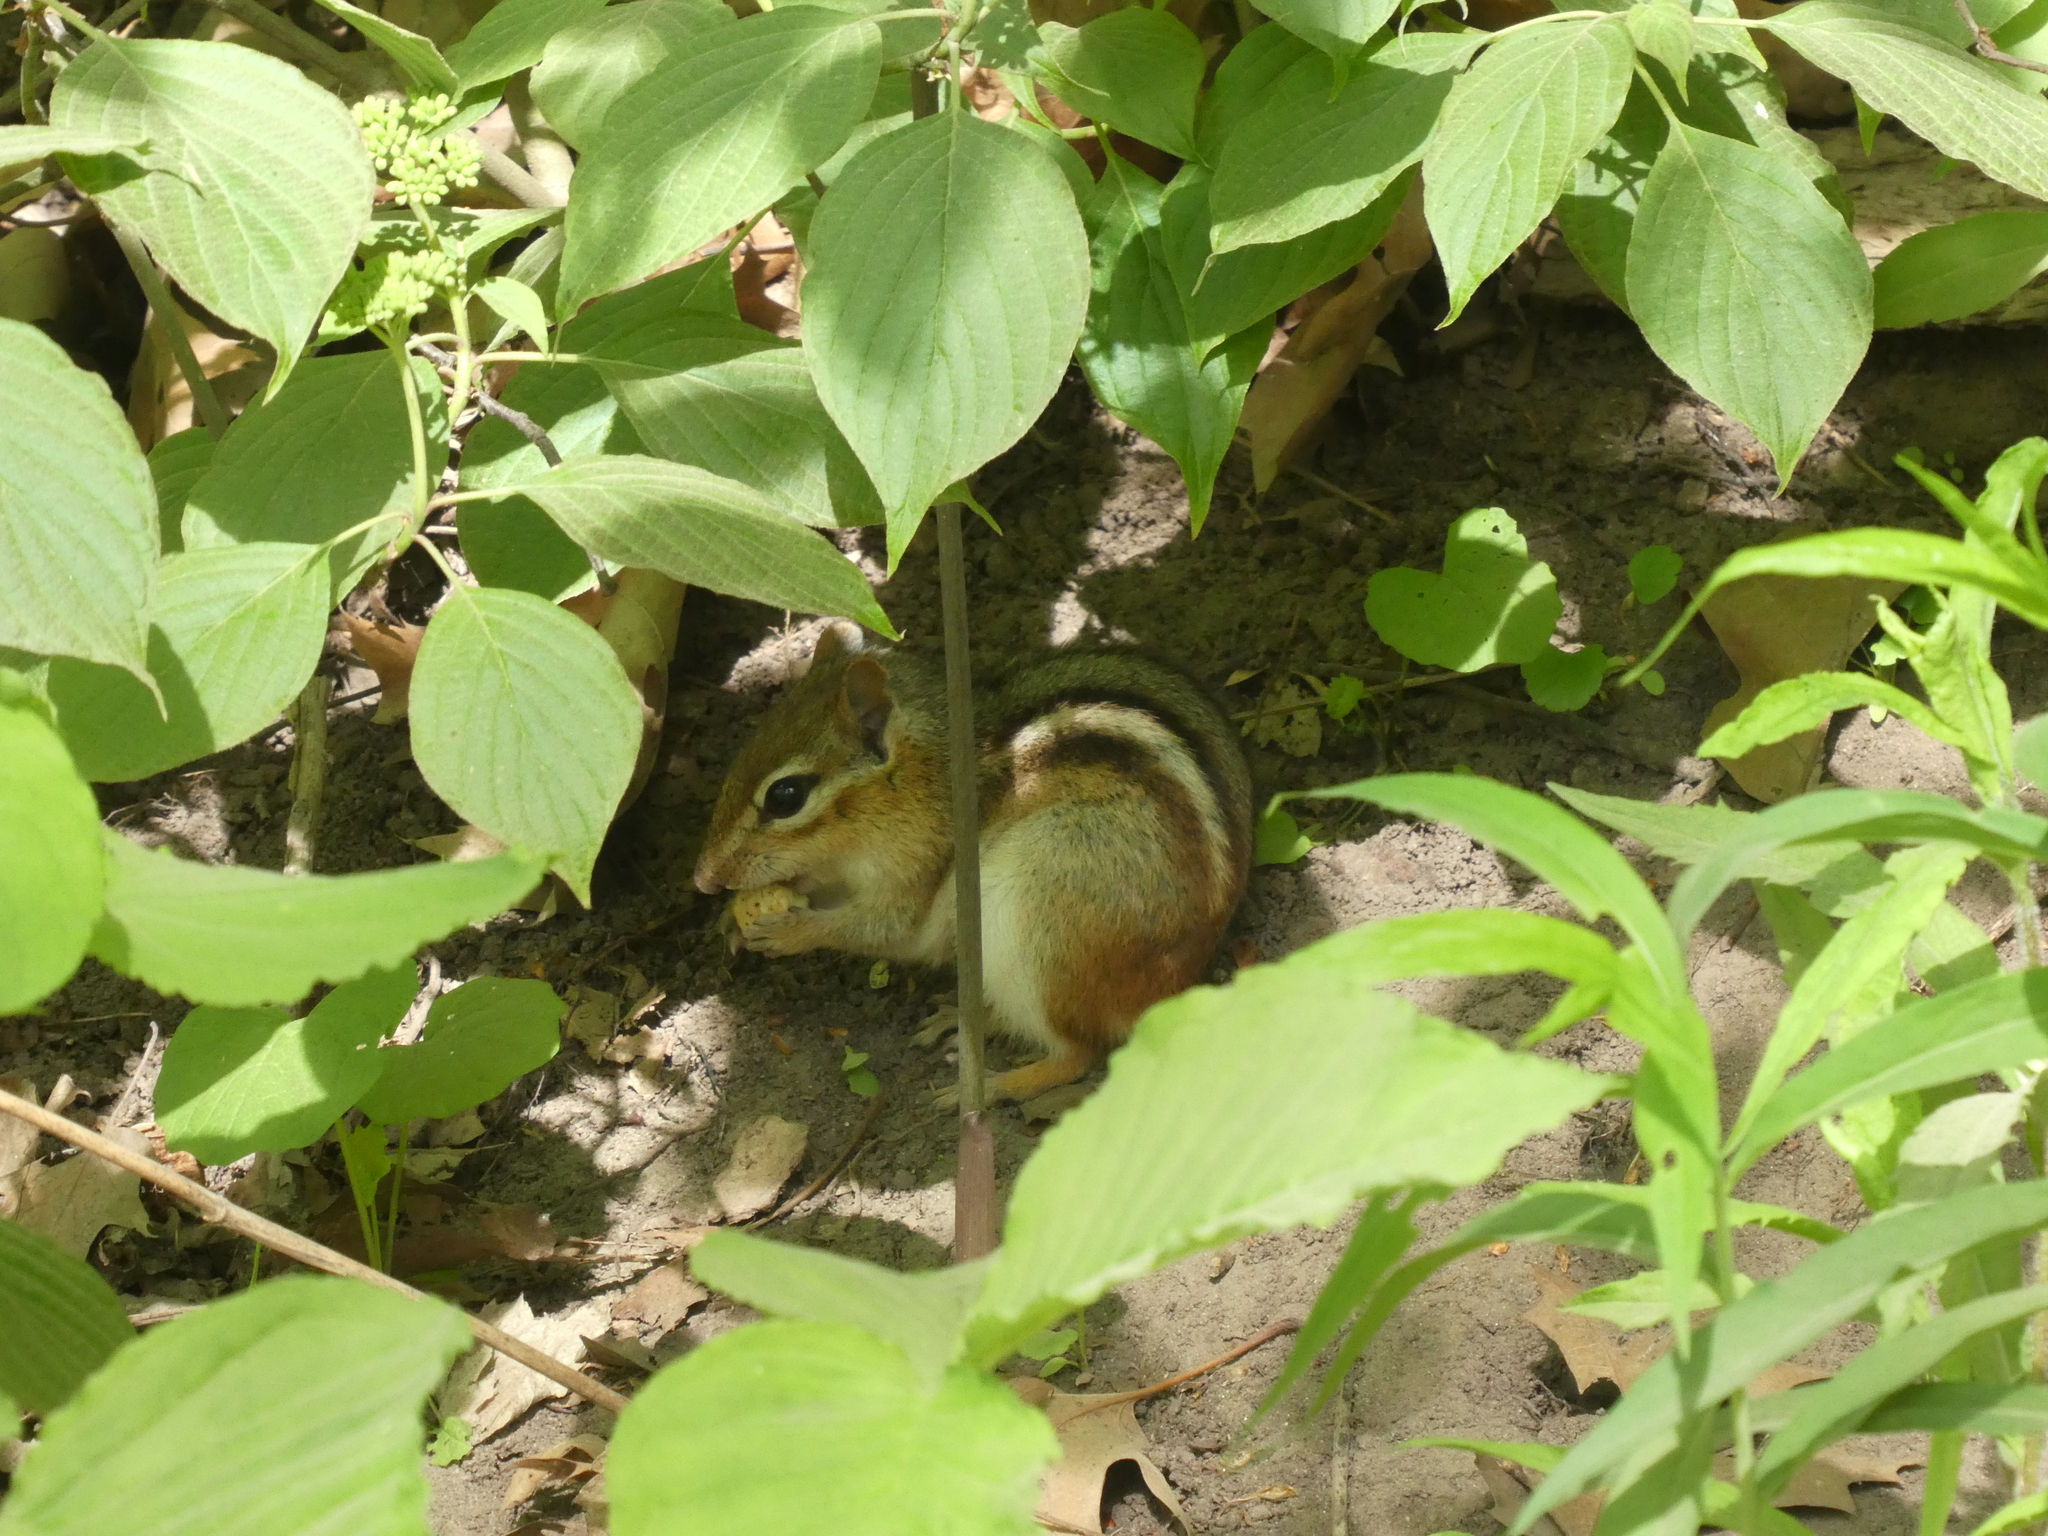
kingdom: Animalia
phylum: Chordata
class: Mammalia
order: Rodentia
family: Sciuridae
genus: Tamias
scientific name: Tamias striatus
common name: Eastern chipmunk
